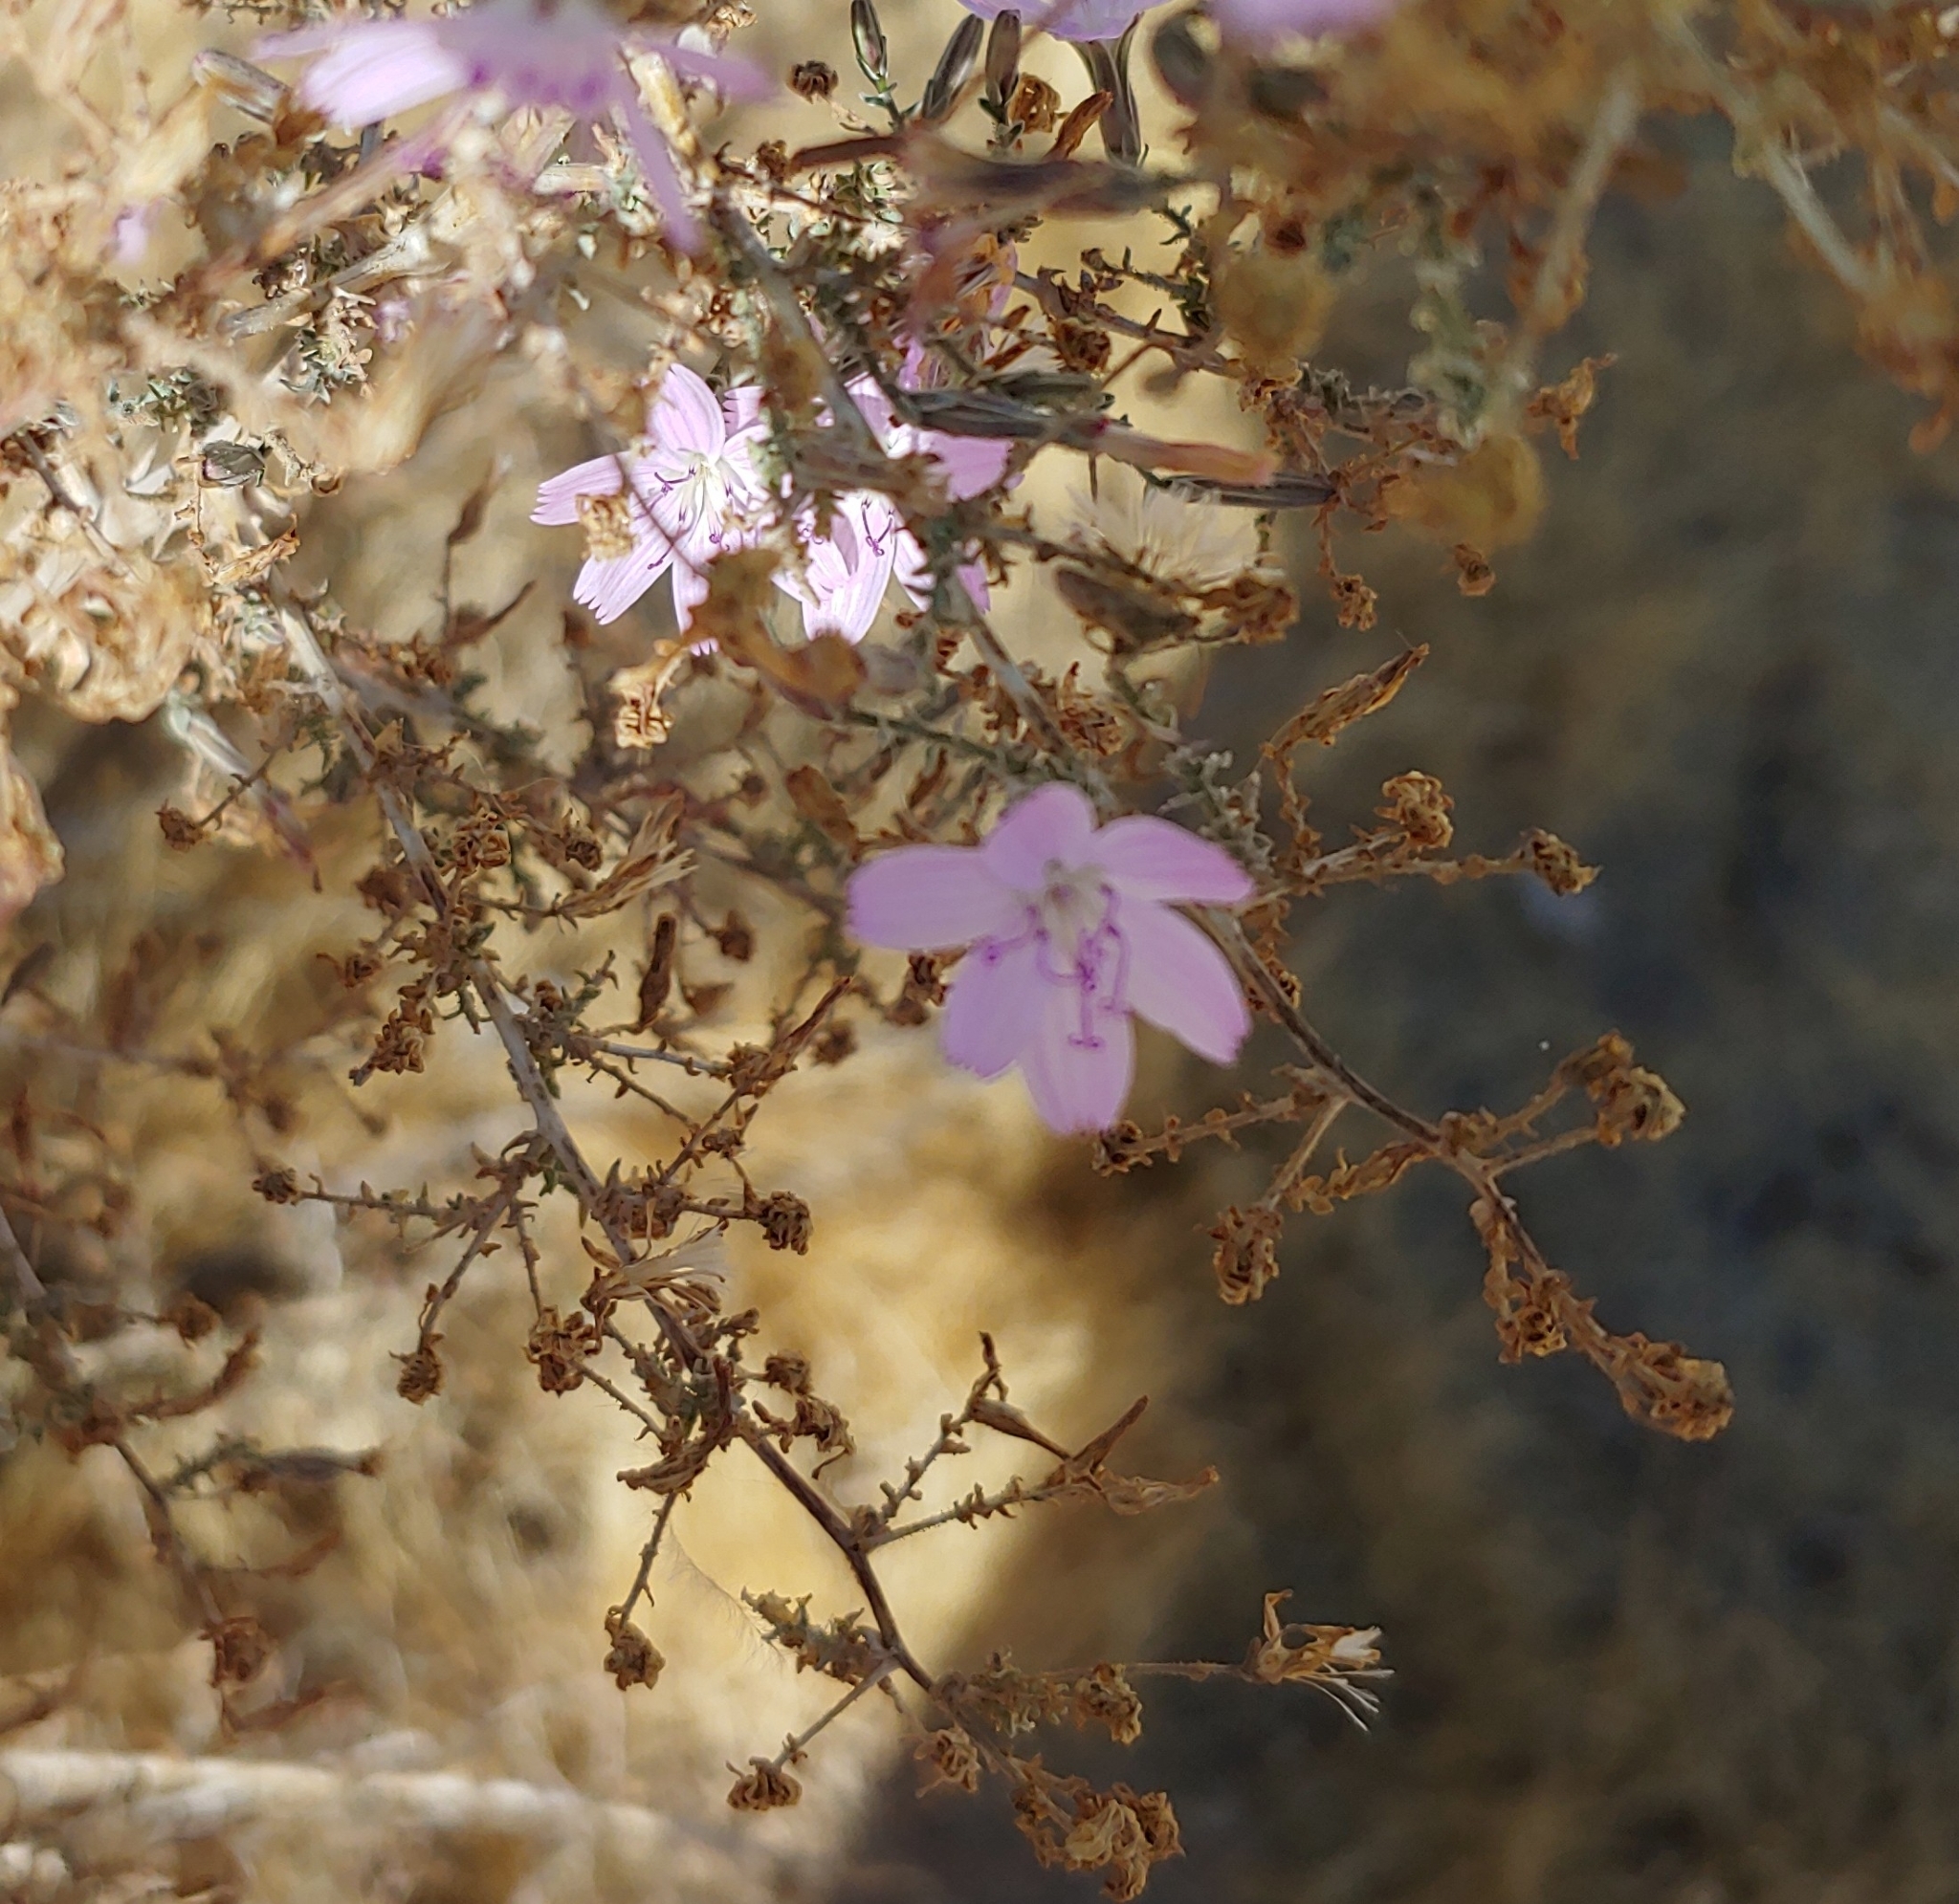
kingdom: Plantae
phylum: Tracheophyta
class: Magnoliopsida
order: Asterales
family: Asteraceae
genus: Stephanomeria
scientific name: Stephanomeria exigua
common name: Small wirelettuce
